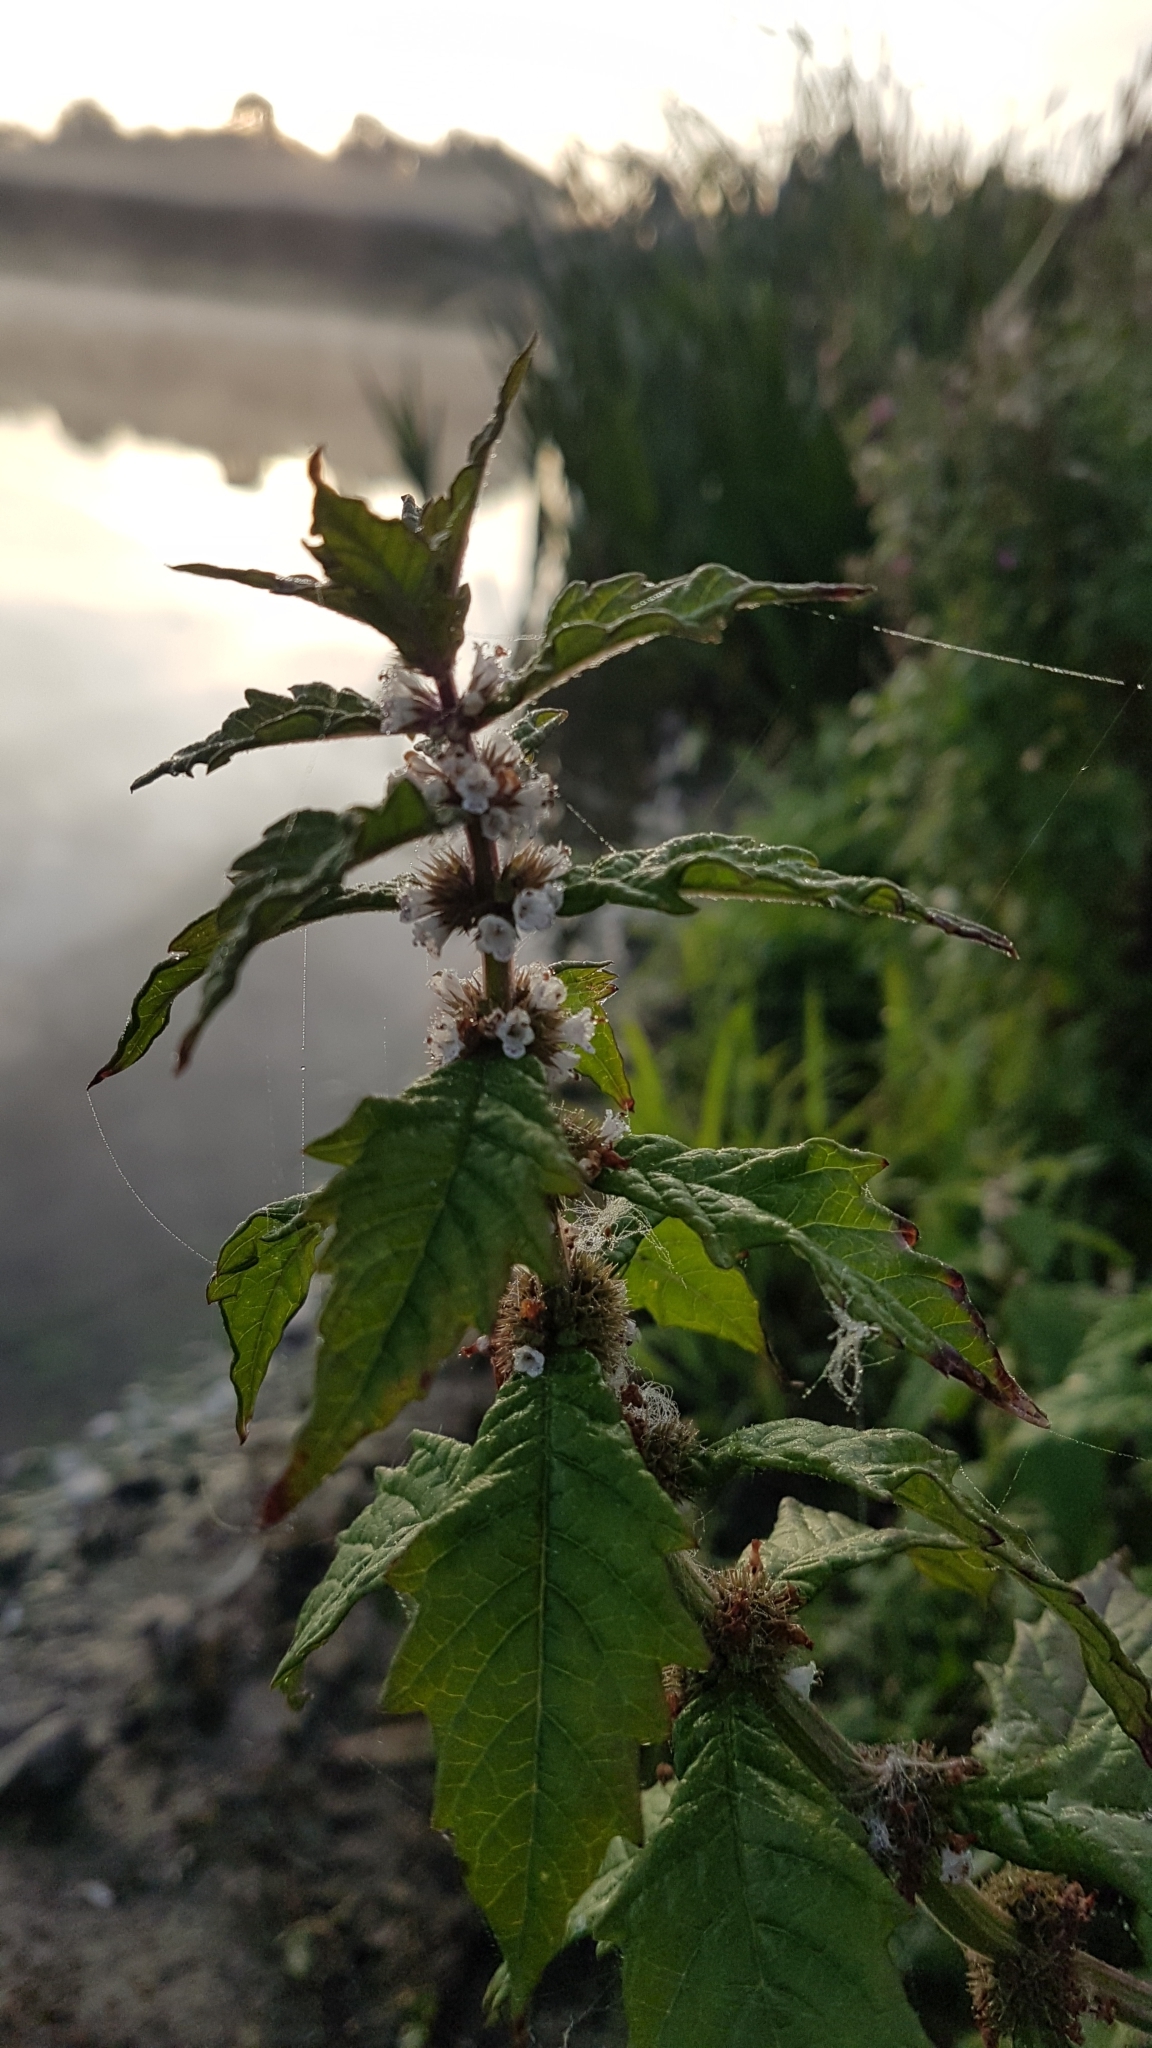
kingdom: Plantae
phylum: Tracheophyta
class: Magnoliopsida
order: Lamiales
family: Lamiaceae
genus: Lycopus
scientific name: Lycopus europaeus
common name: European bugleweed
